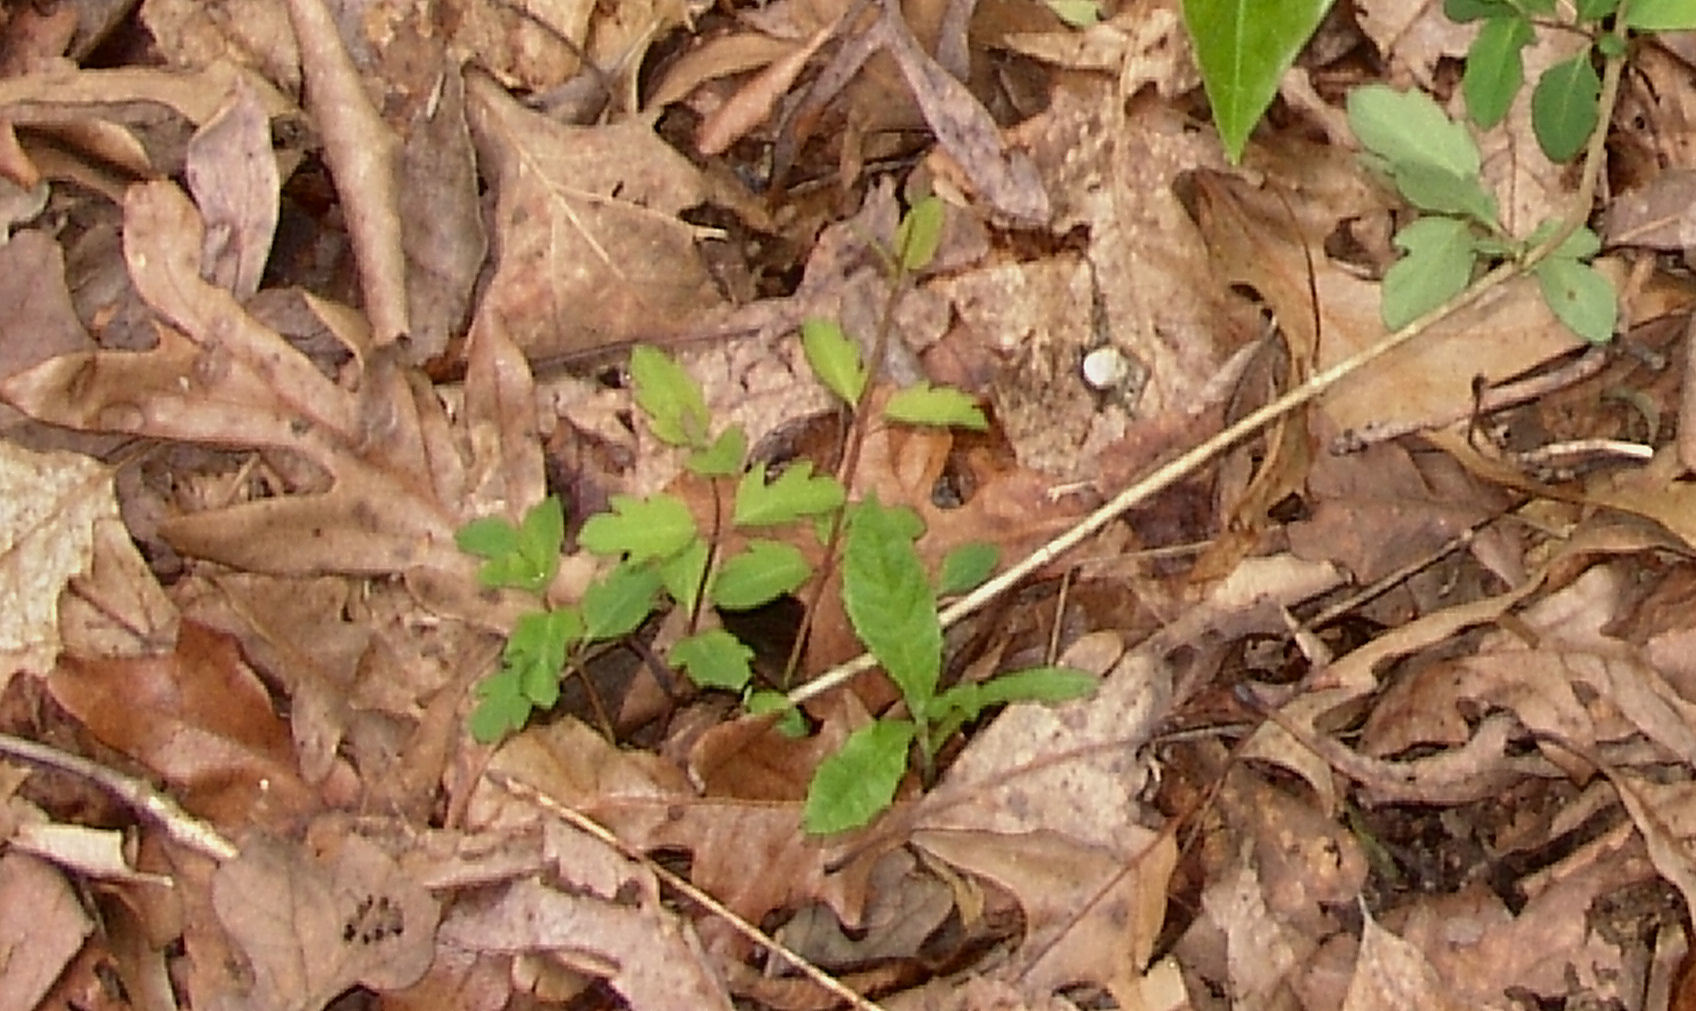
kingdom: Plantae
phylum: Tracheophyta
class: Magnoliopsida
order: Dipsacales
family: Caprifoliaceae
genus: Lonicera
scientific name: Lonicera japonica
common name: Japanese honeysuckle
